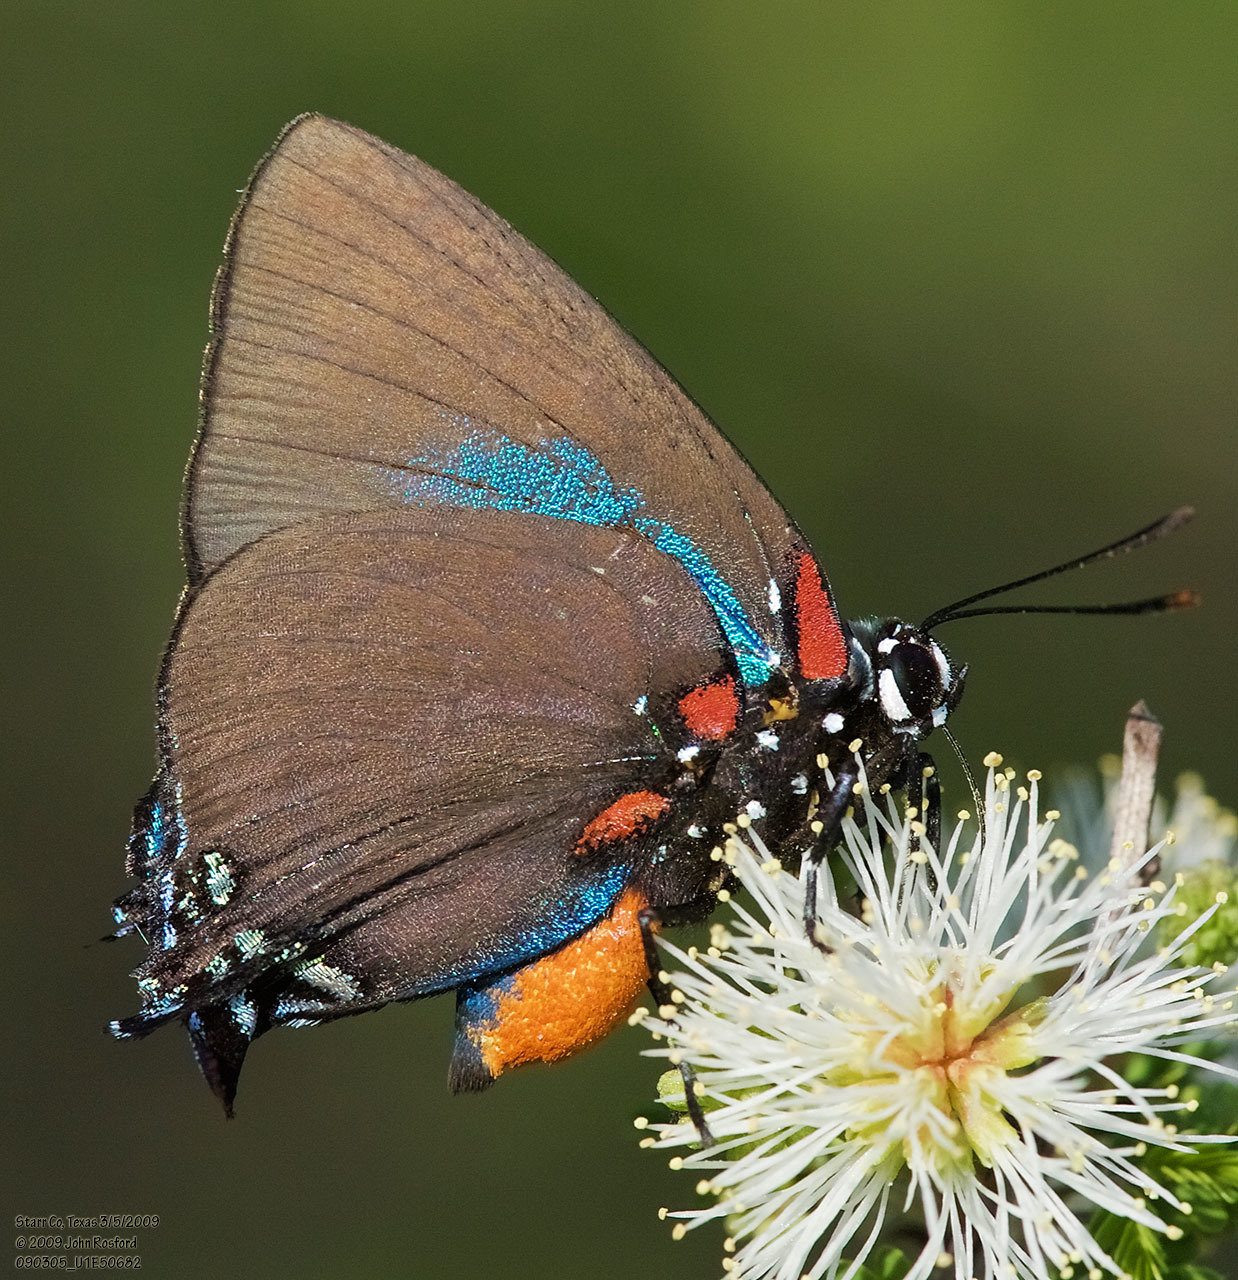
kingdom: Animalia
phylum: Arthropoda
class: Insecta
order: Lepidoptera
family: Lycaenidae
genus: Atlides
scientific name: Atlides halesus
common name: Great purple hairstreak
